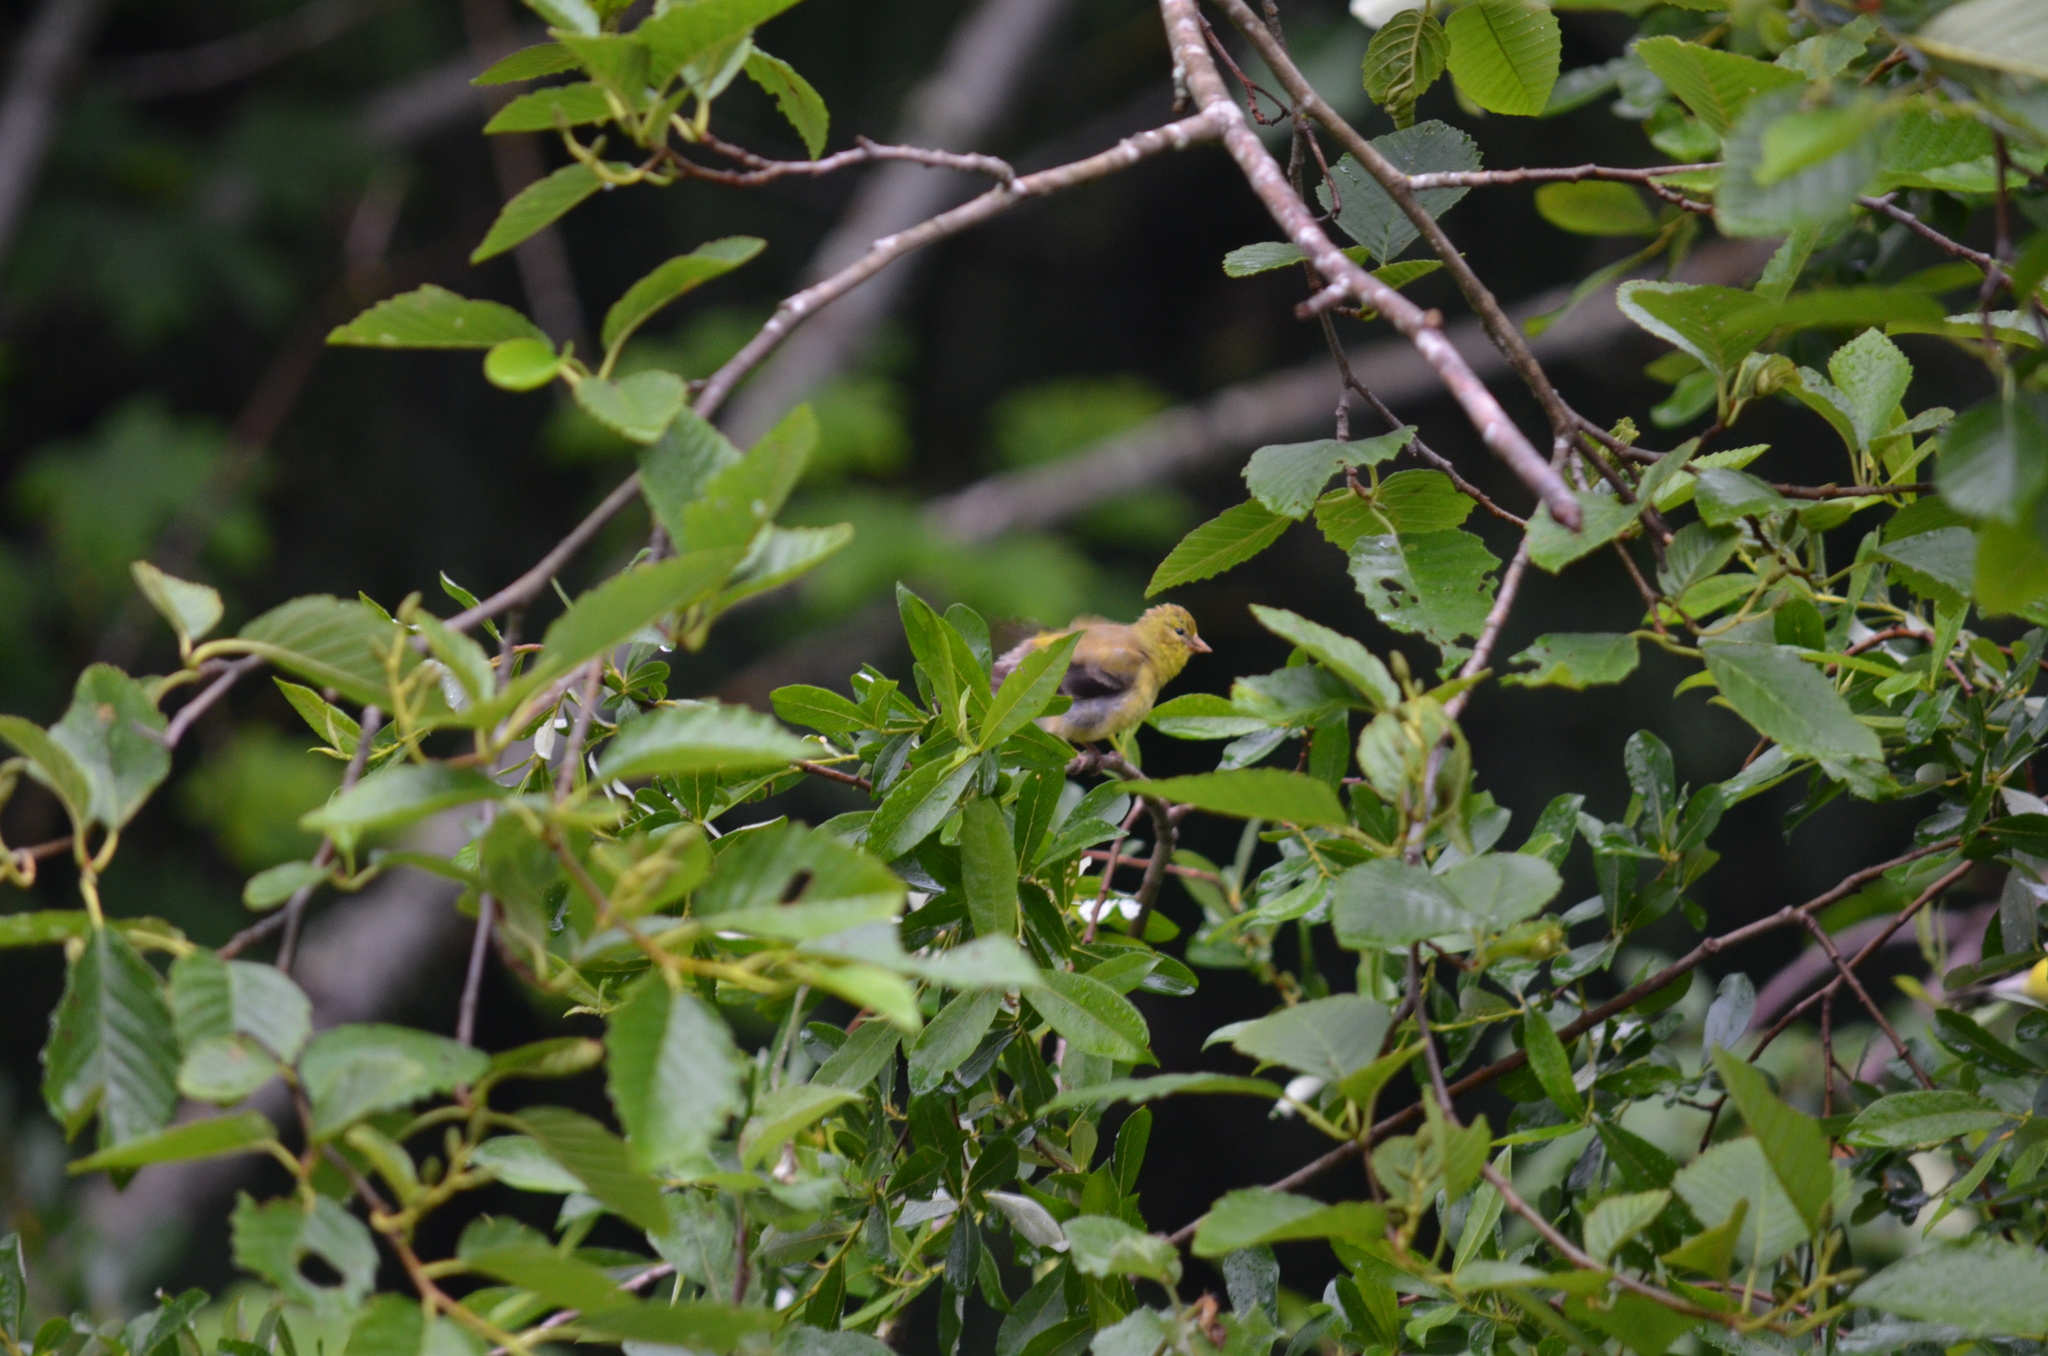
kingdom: Animalia
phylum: Chordata
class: Aves
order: Passeriformes
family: Fringillidae
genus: Spinus
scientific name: Spinus tristis
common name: American goldfinch
